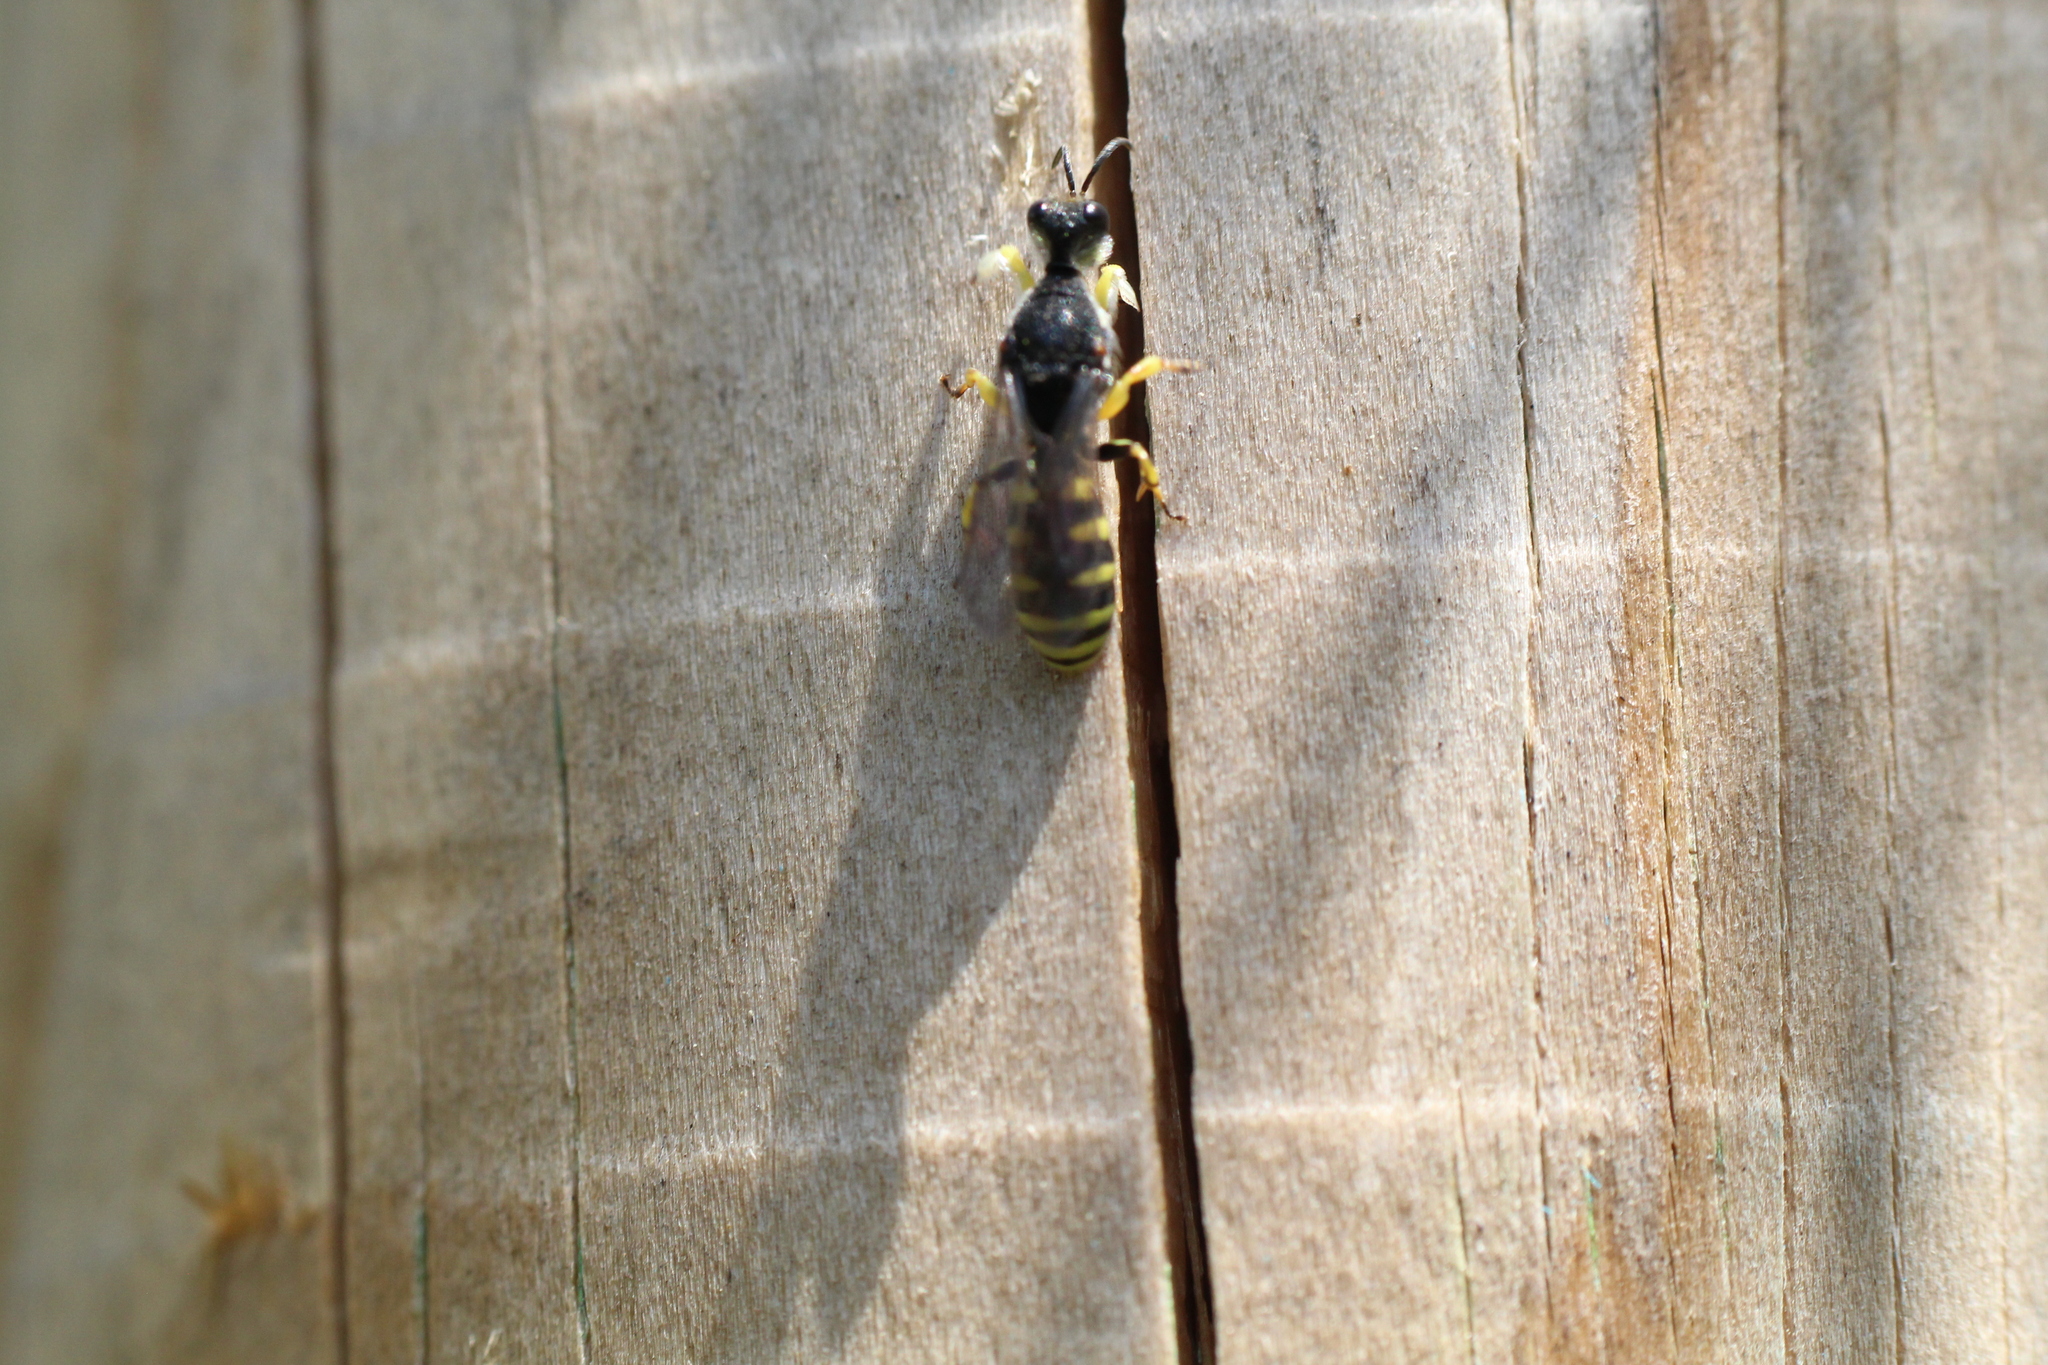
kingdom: Animalia
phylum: Arthropoda
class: Insecta
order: Hymenoptera
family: Crabronidae
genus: Lestica
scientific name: Lestica clypeata
